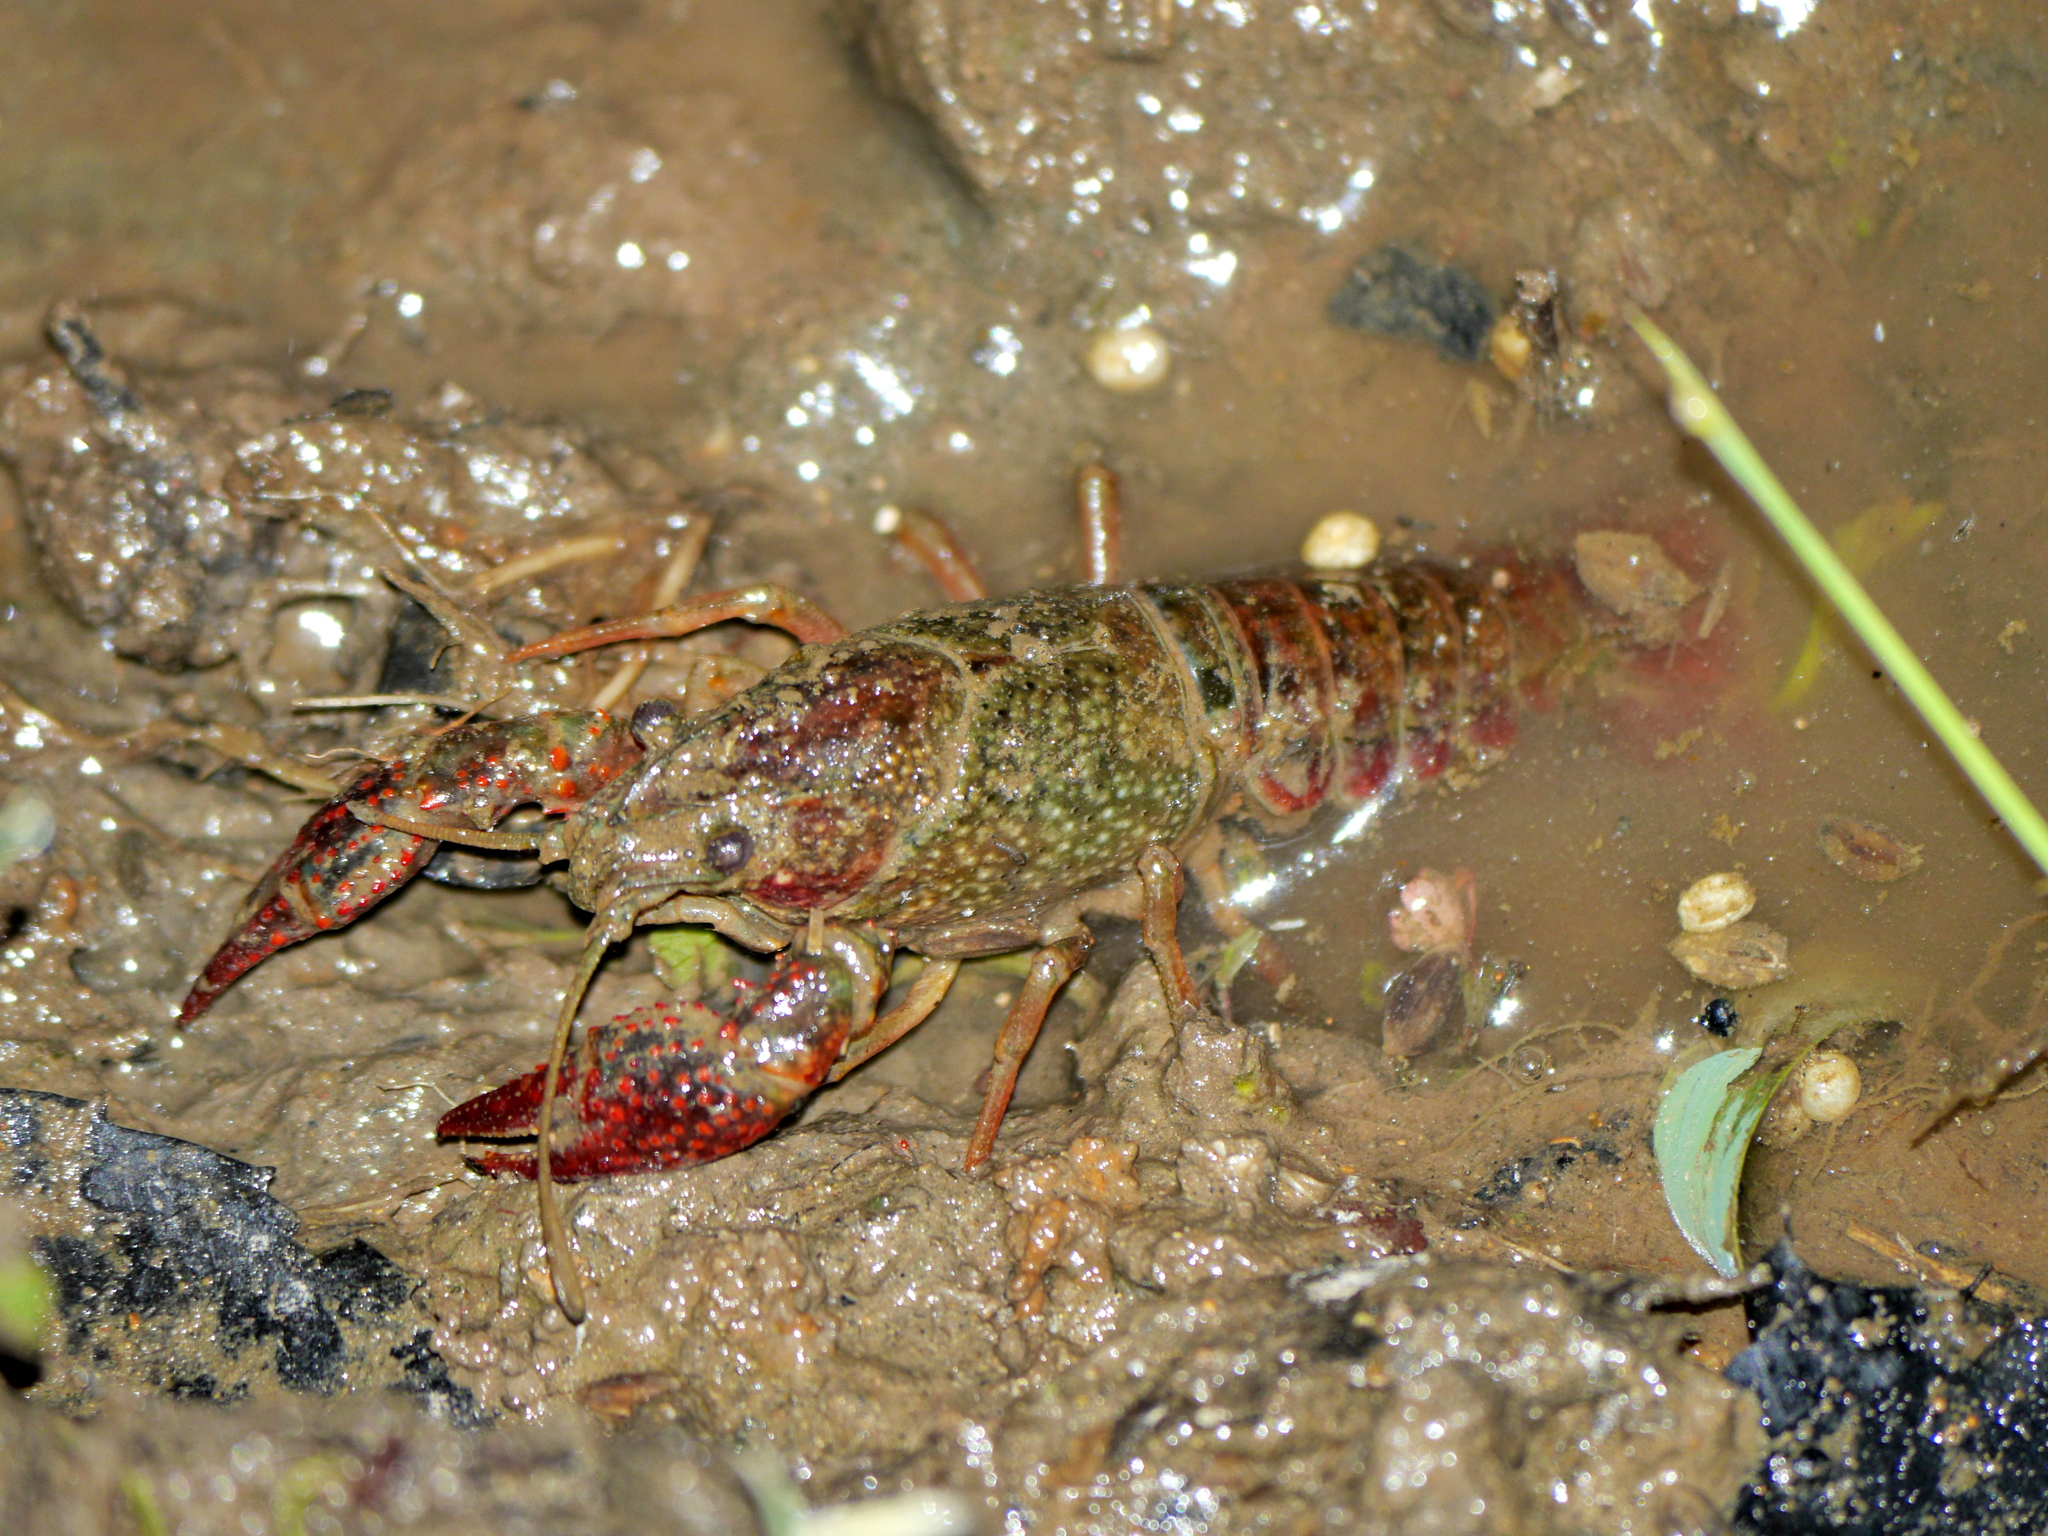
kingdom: Animalia
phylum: Arthropoda
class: Malacostraca
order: Decapoda
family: Cambaridae
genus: Procambarus
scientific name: Procambarus clarkii
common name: Red swamp crayfish
